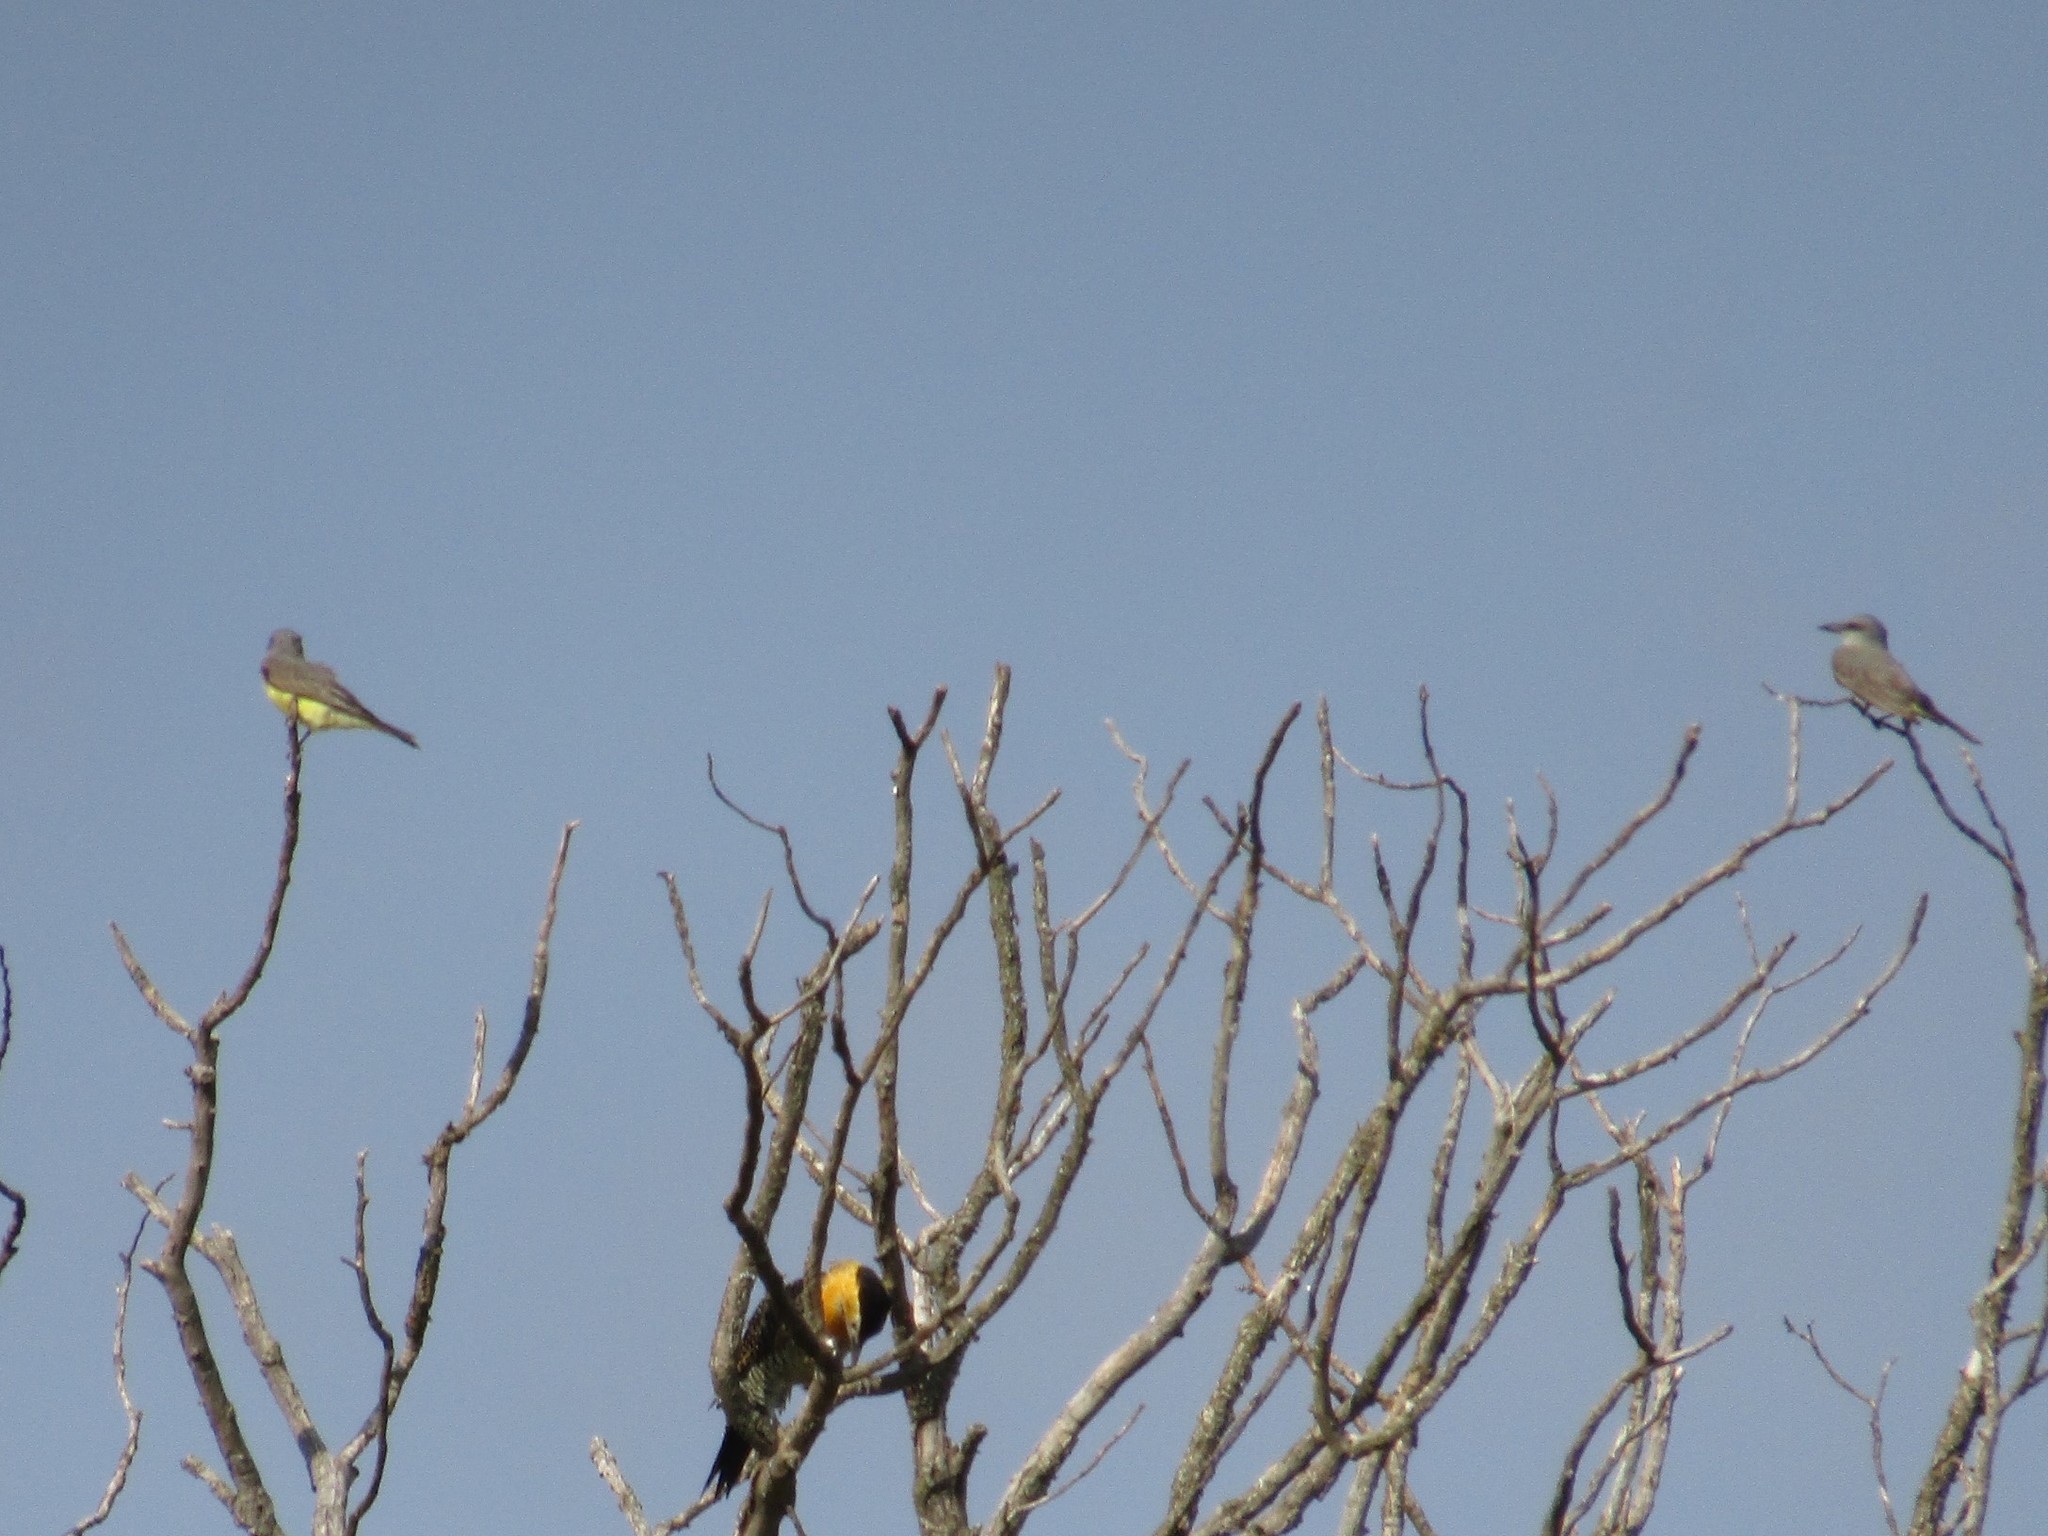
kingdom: Animalia
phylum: Chordata
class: Aves
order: Passeriformes
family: Tyrannidae
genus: Tyrannus
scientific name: Tyrannus melancholicus
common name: Tropical kingbird
